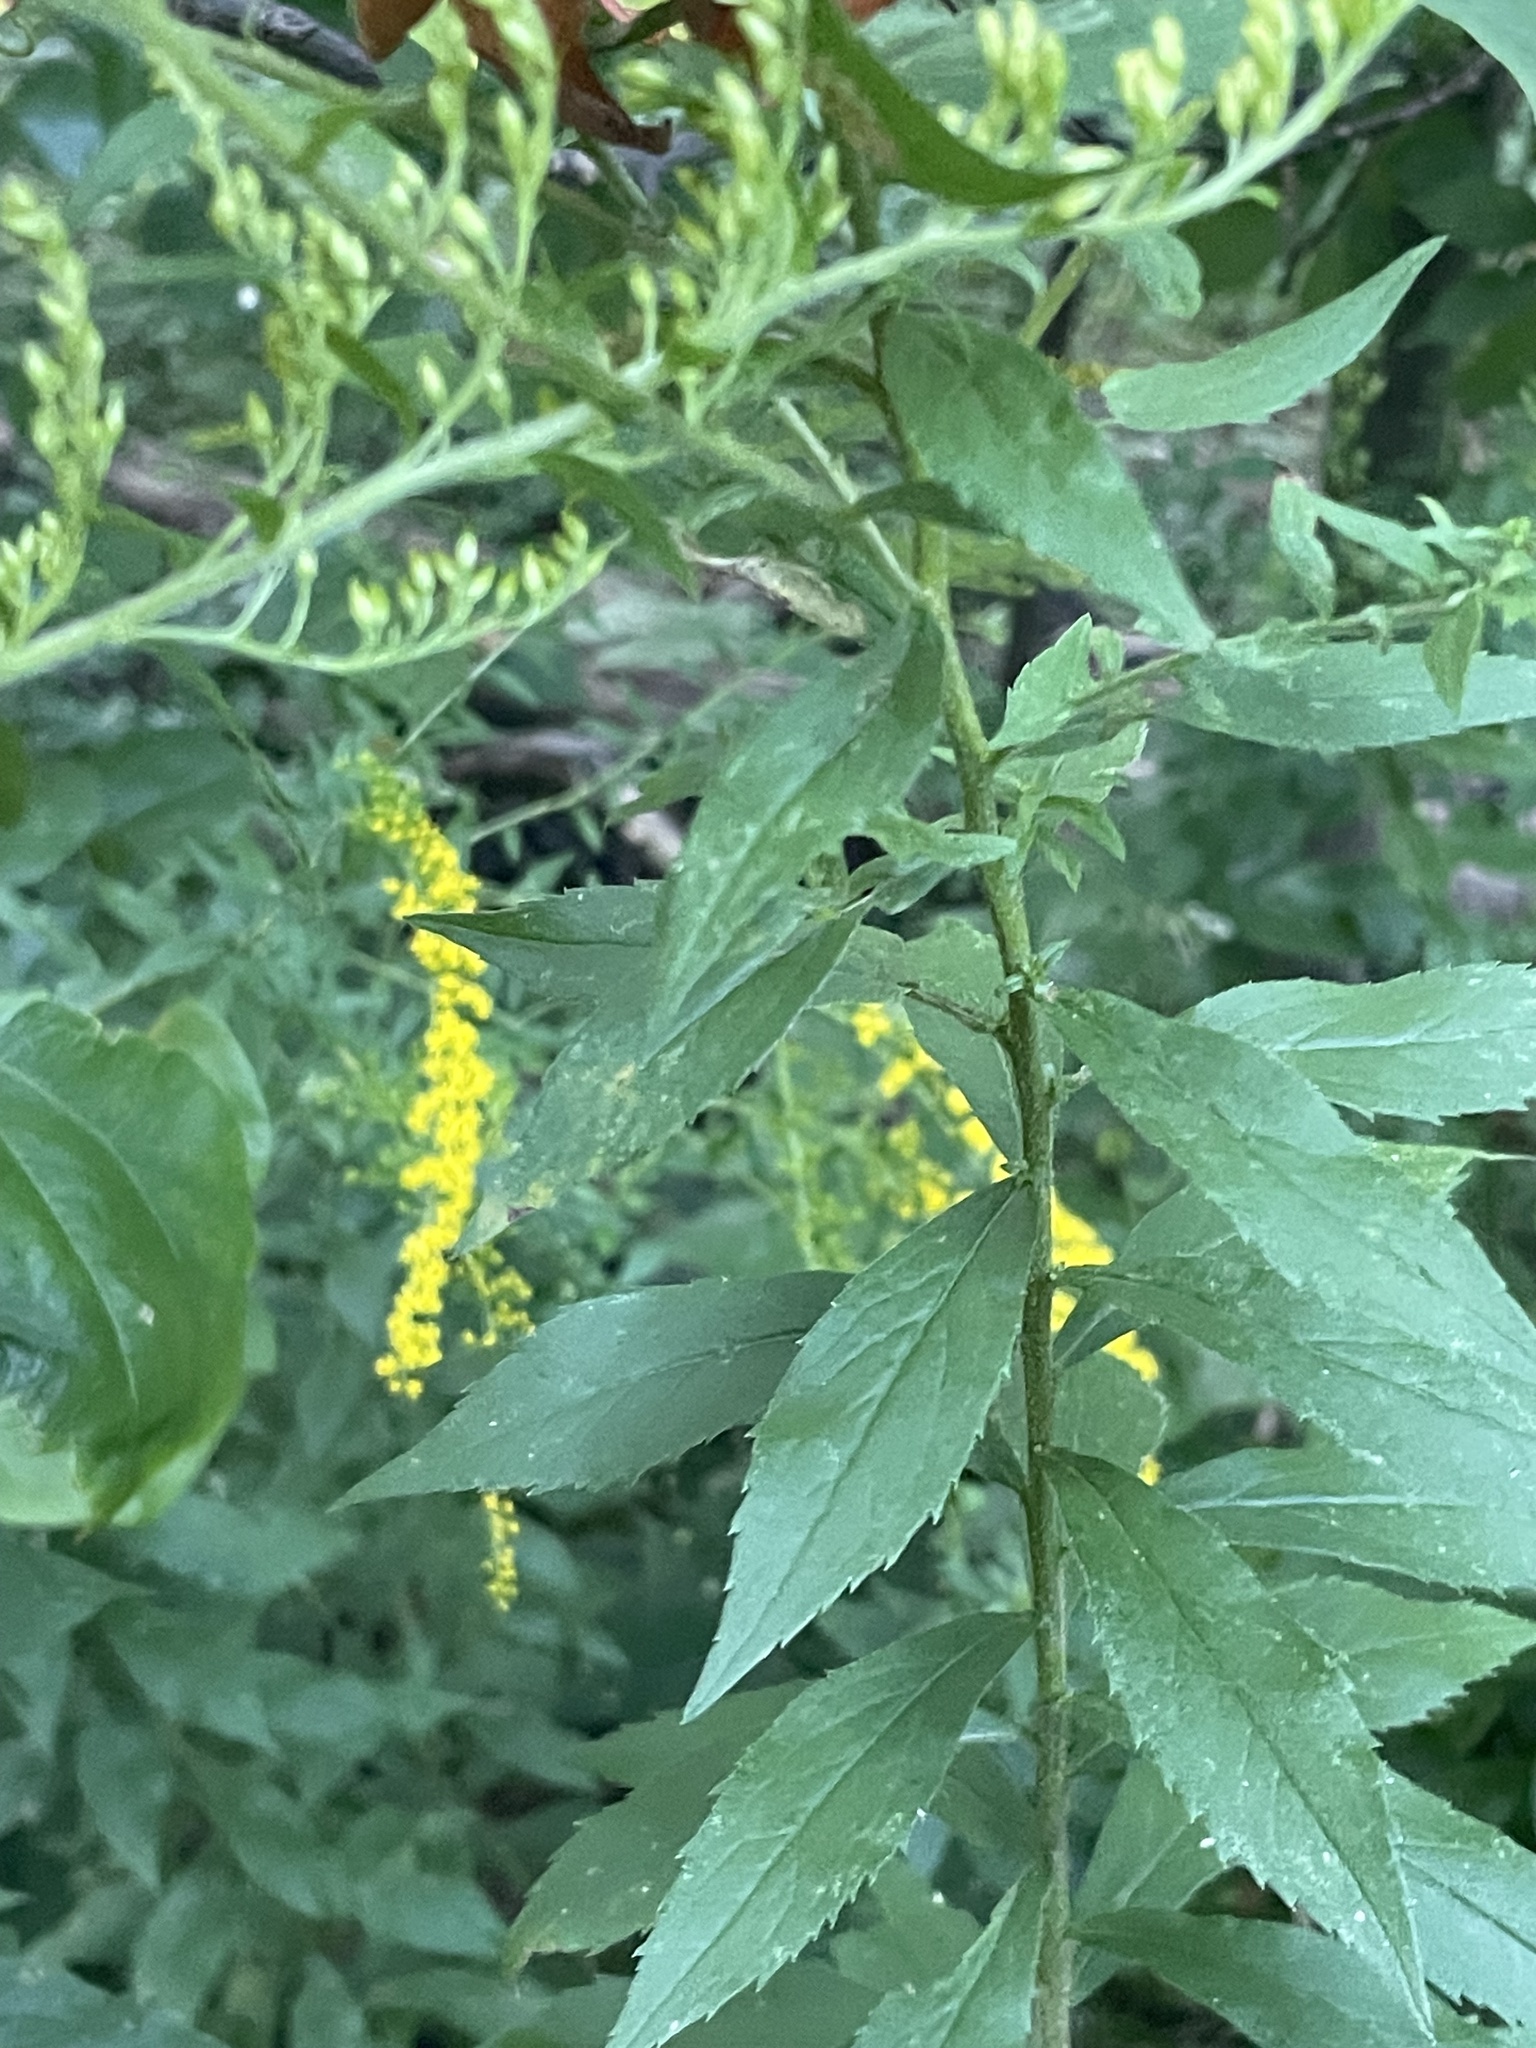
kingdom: Plantae
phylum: Tracheophyta
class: Magnoliopsida
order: Asterales
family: Asteraceae
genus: Solidago
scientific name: Solidago rugosa
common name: Rough-stemmed goldenrod
